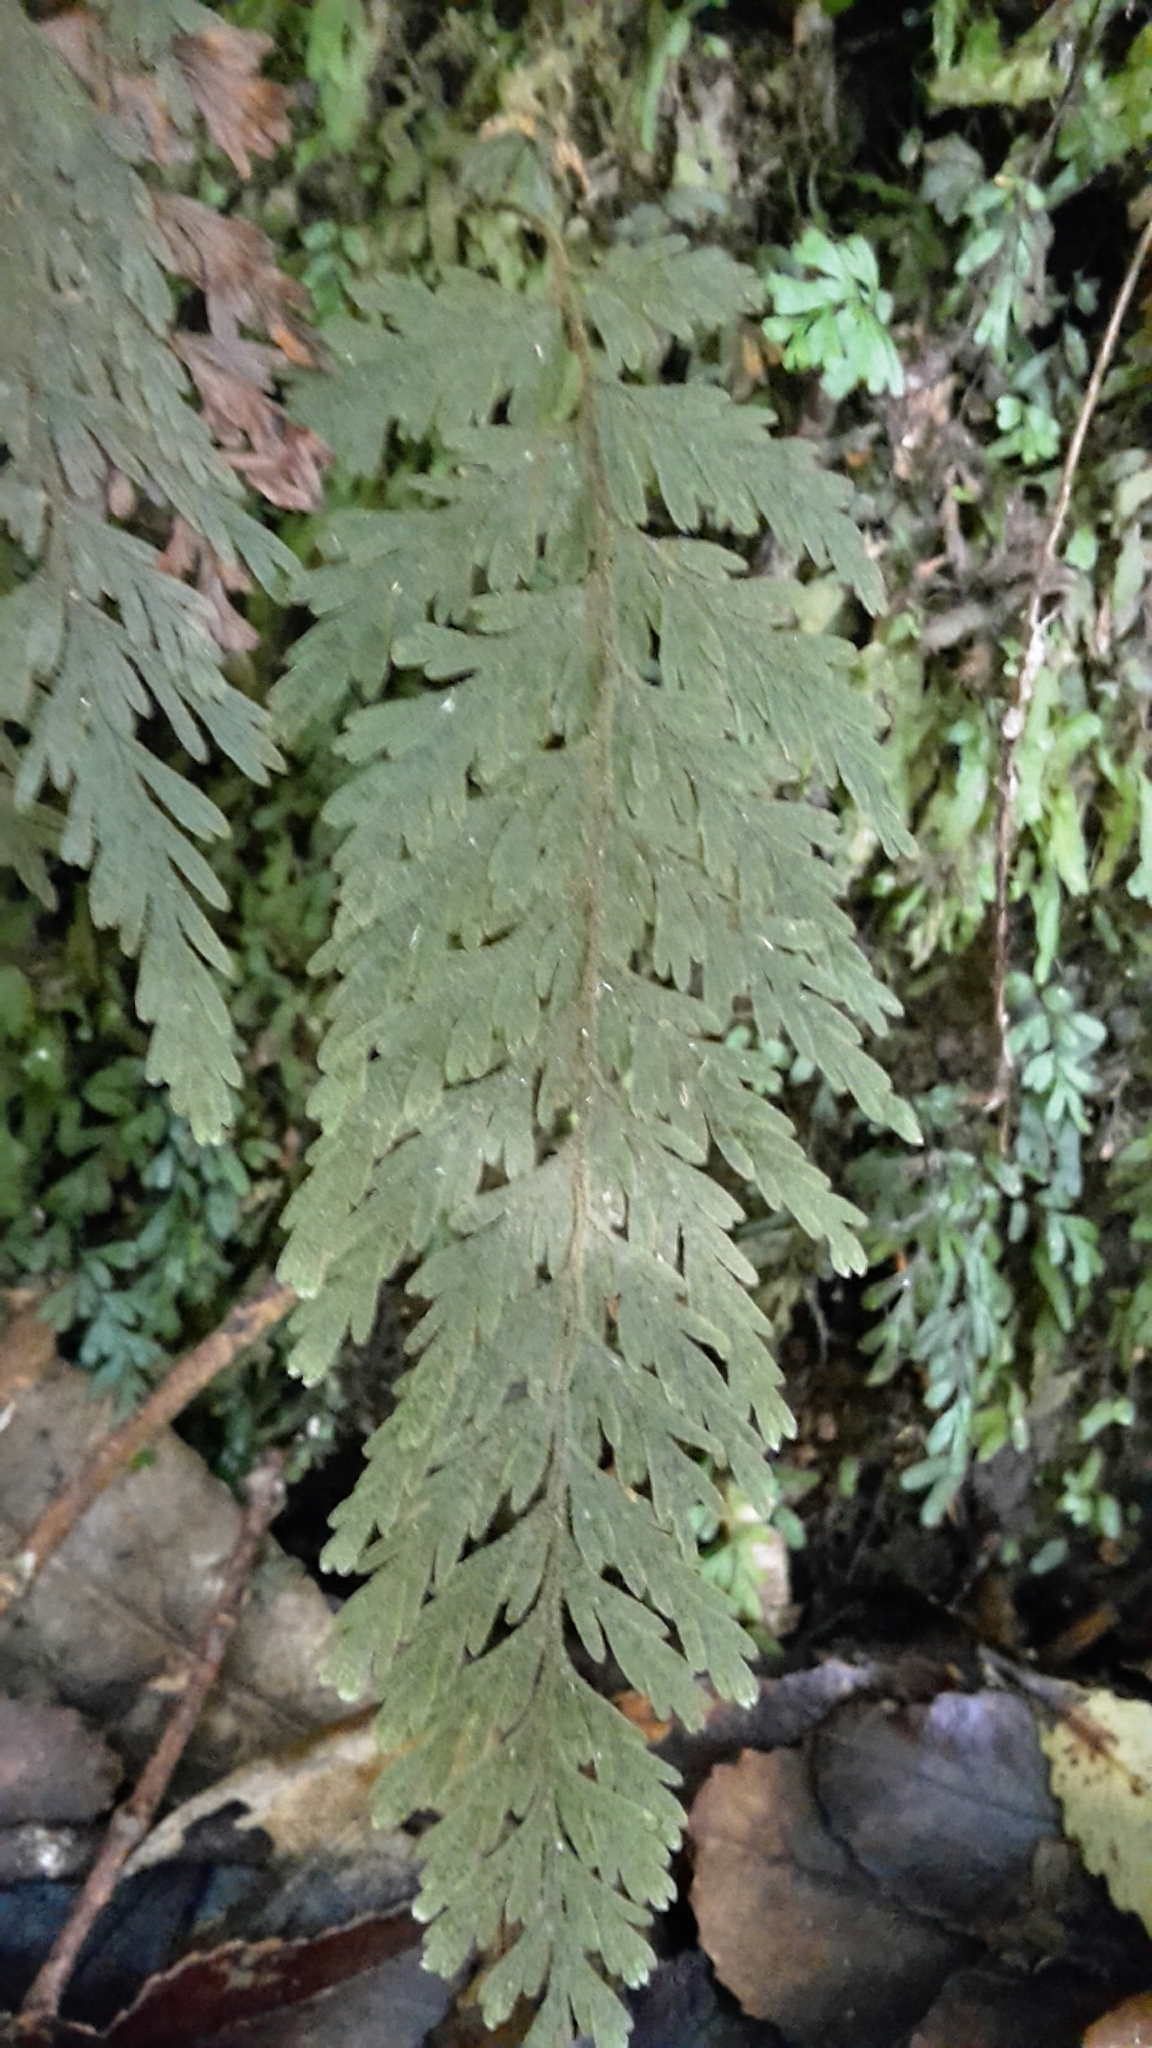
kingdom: Plantae
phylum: Tracheophyta
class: Polypodiopsida
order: Hymenophyllales
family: Hymenophyllaceae
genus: Hymenophyllum
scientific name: Hymenophyllum frankliniae
